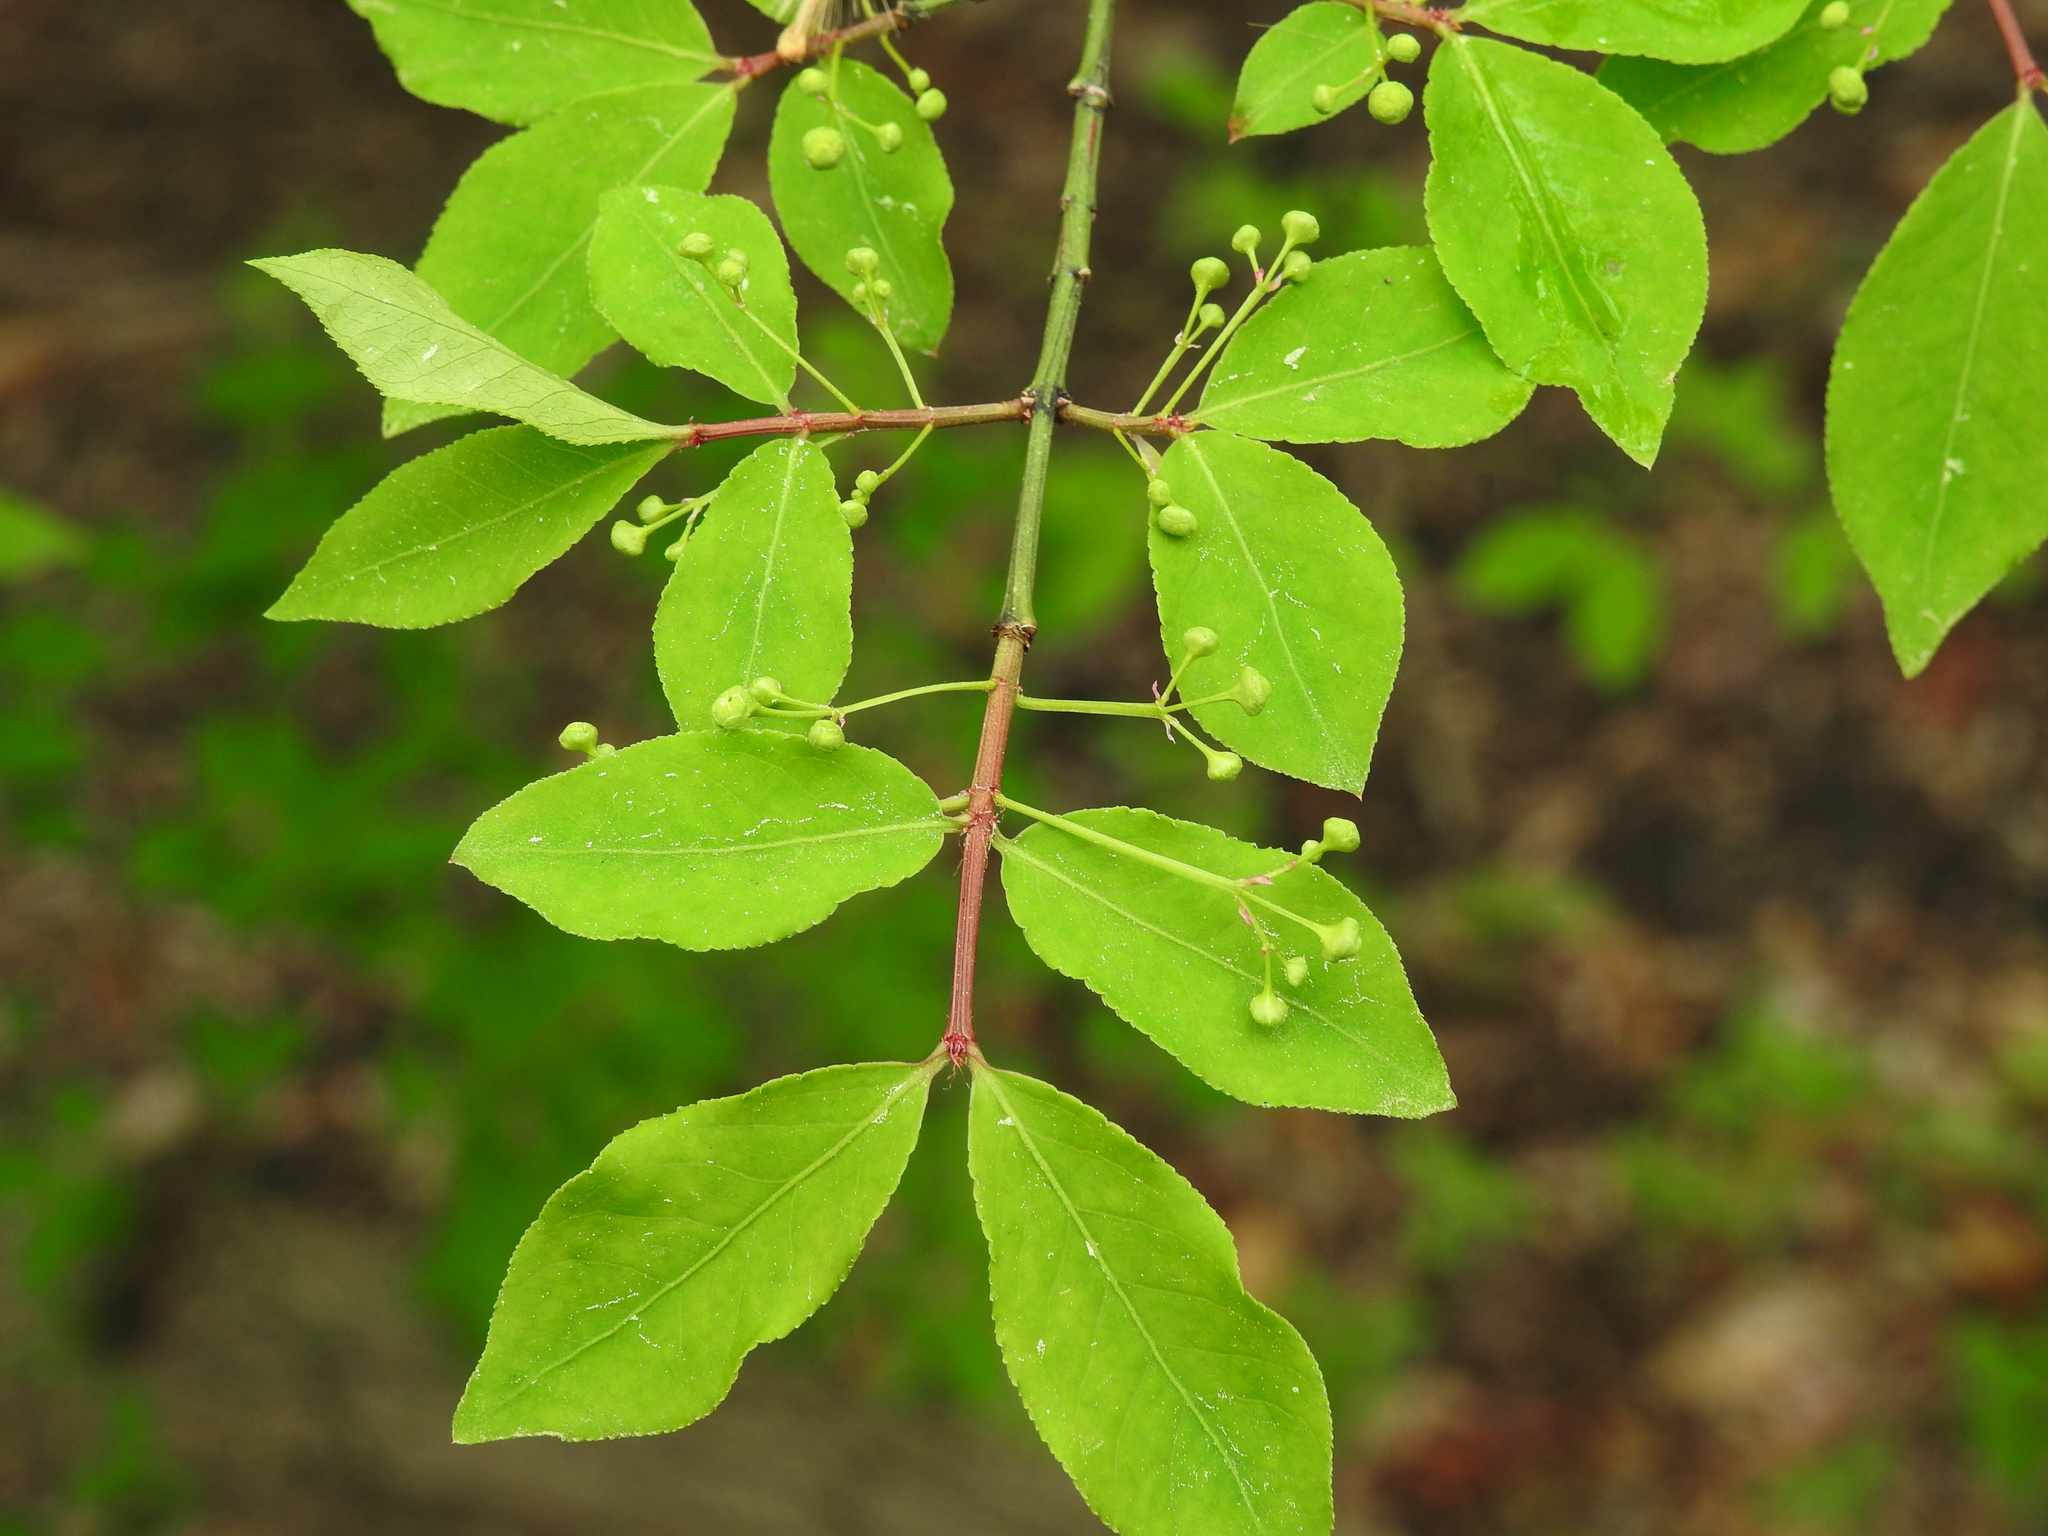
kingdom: Plantae
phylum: Tracheophyta
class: Magnoliopsida
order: Celastrales
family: Celastraceae
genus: Euonymus
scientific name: Euonymus alatus
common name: Winged euonymus
